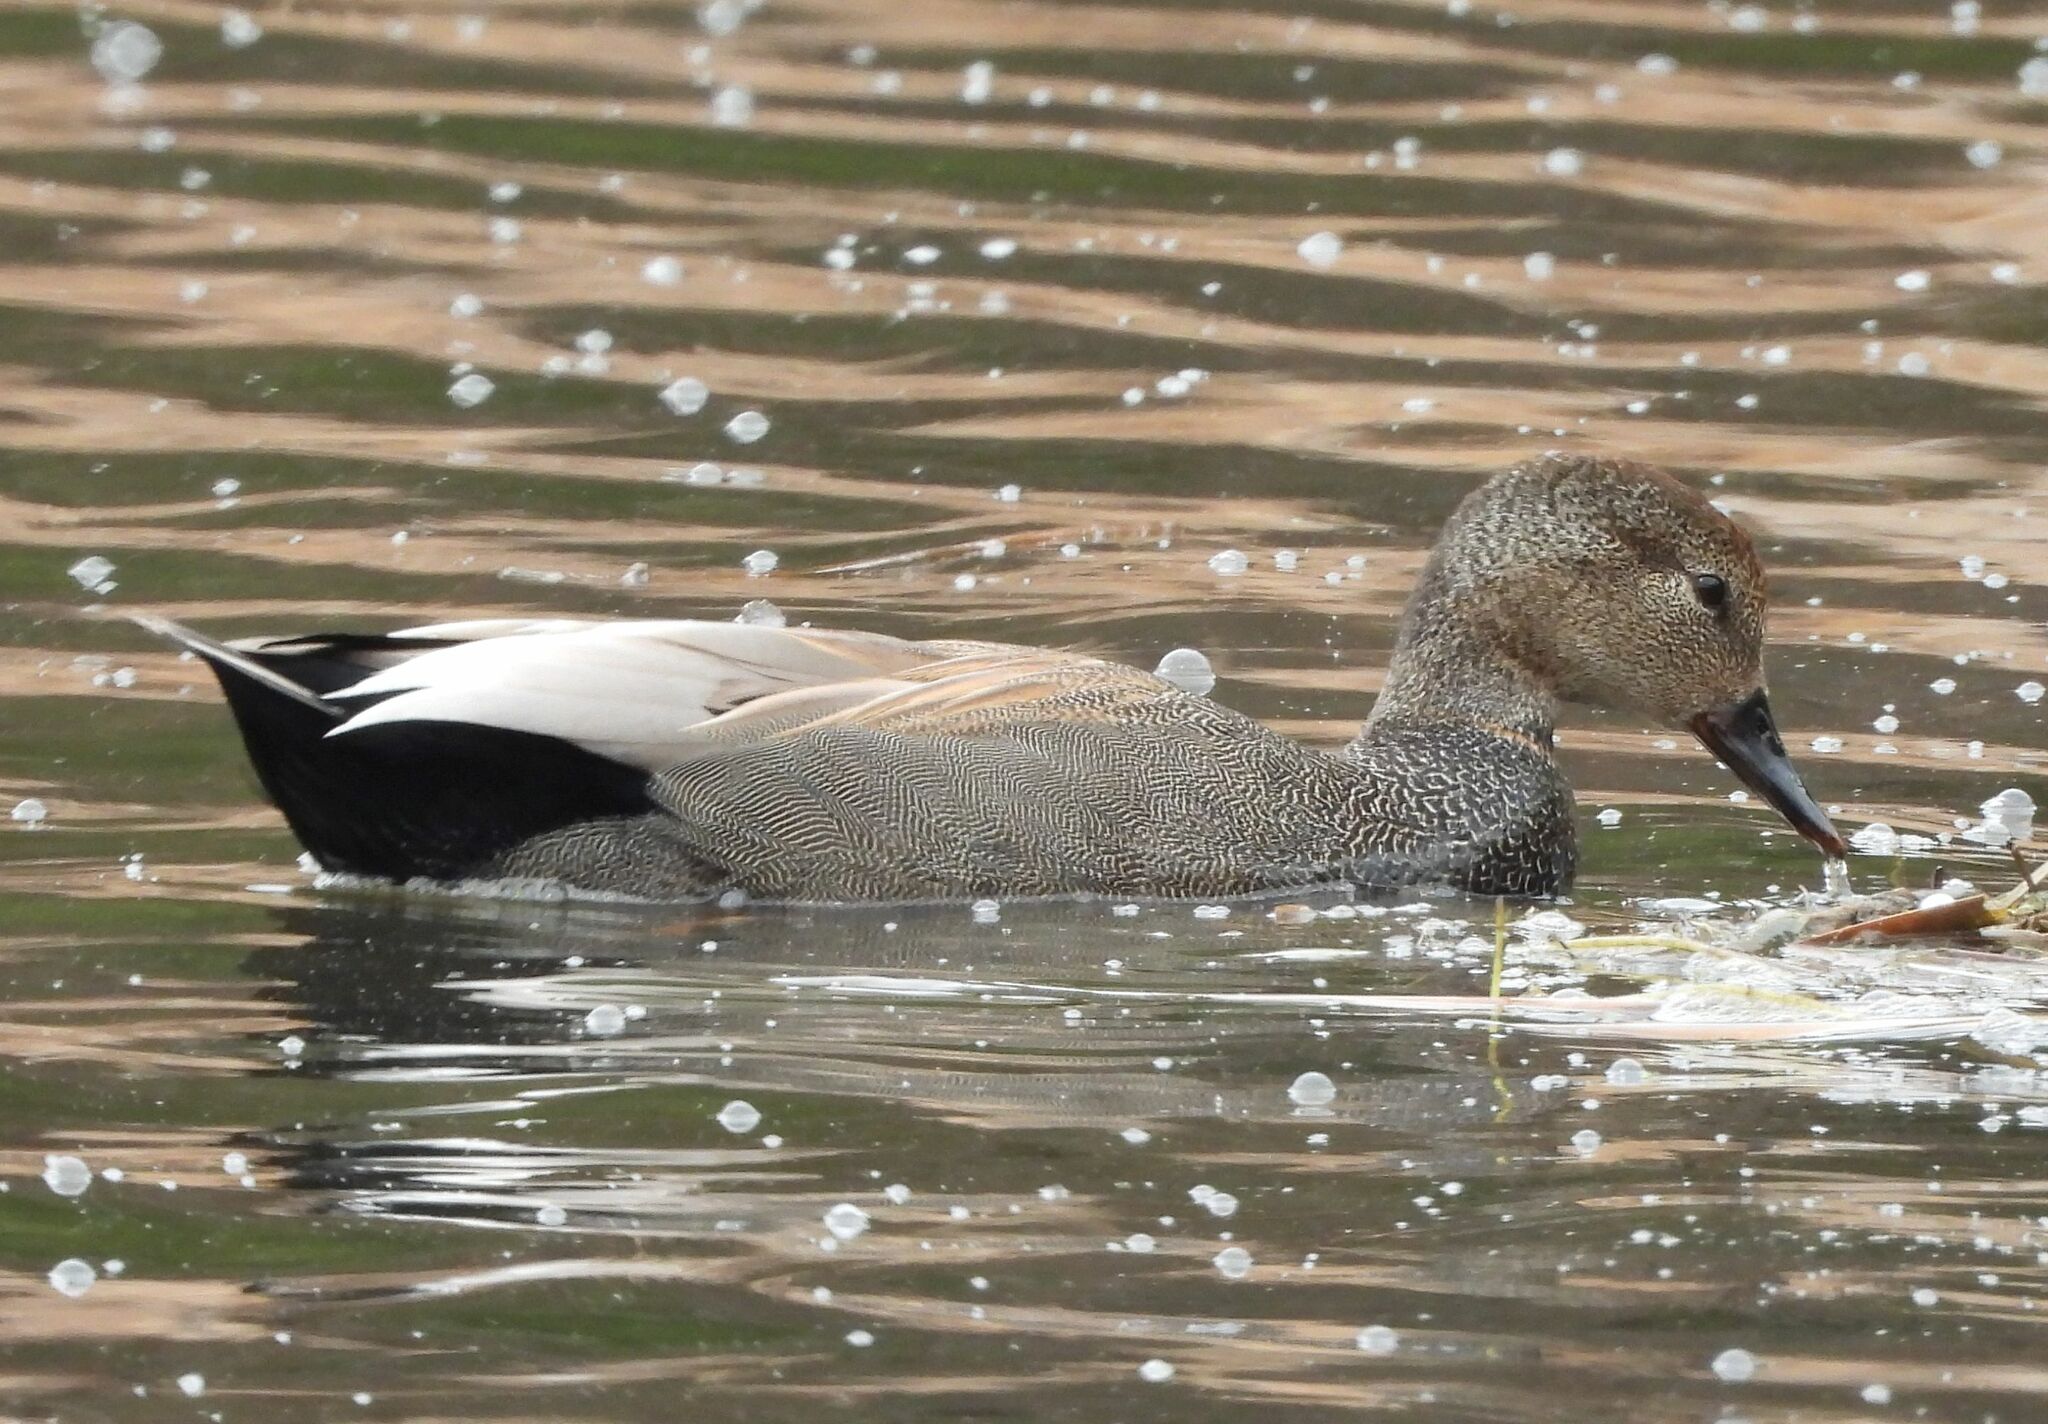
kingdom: Animalia
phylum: Chordata
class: Aves
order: Anseriformes
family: Anatidae
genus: Mareca
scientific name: Mareca strepera
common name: Gadwall
